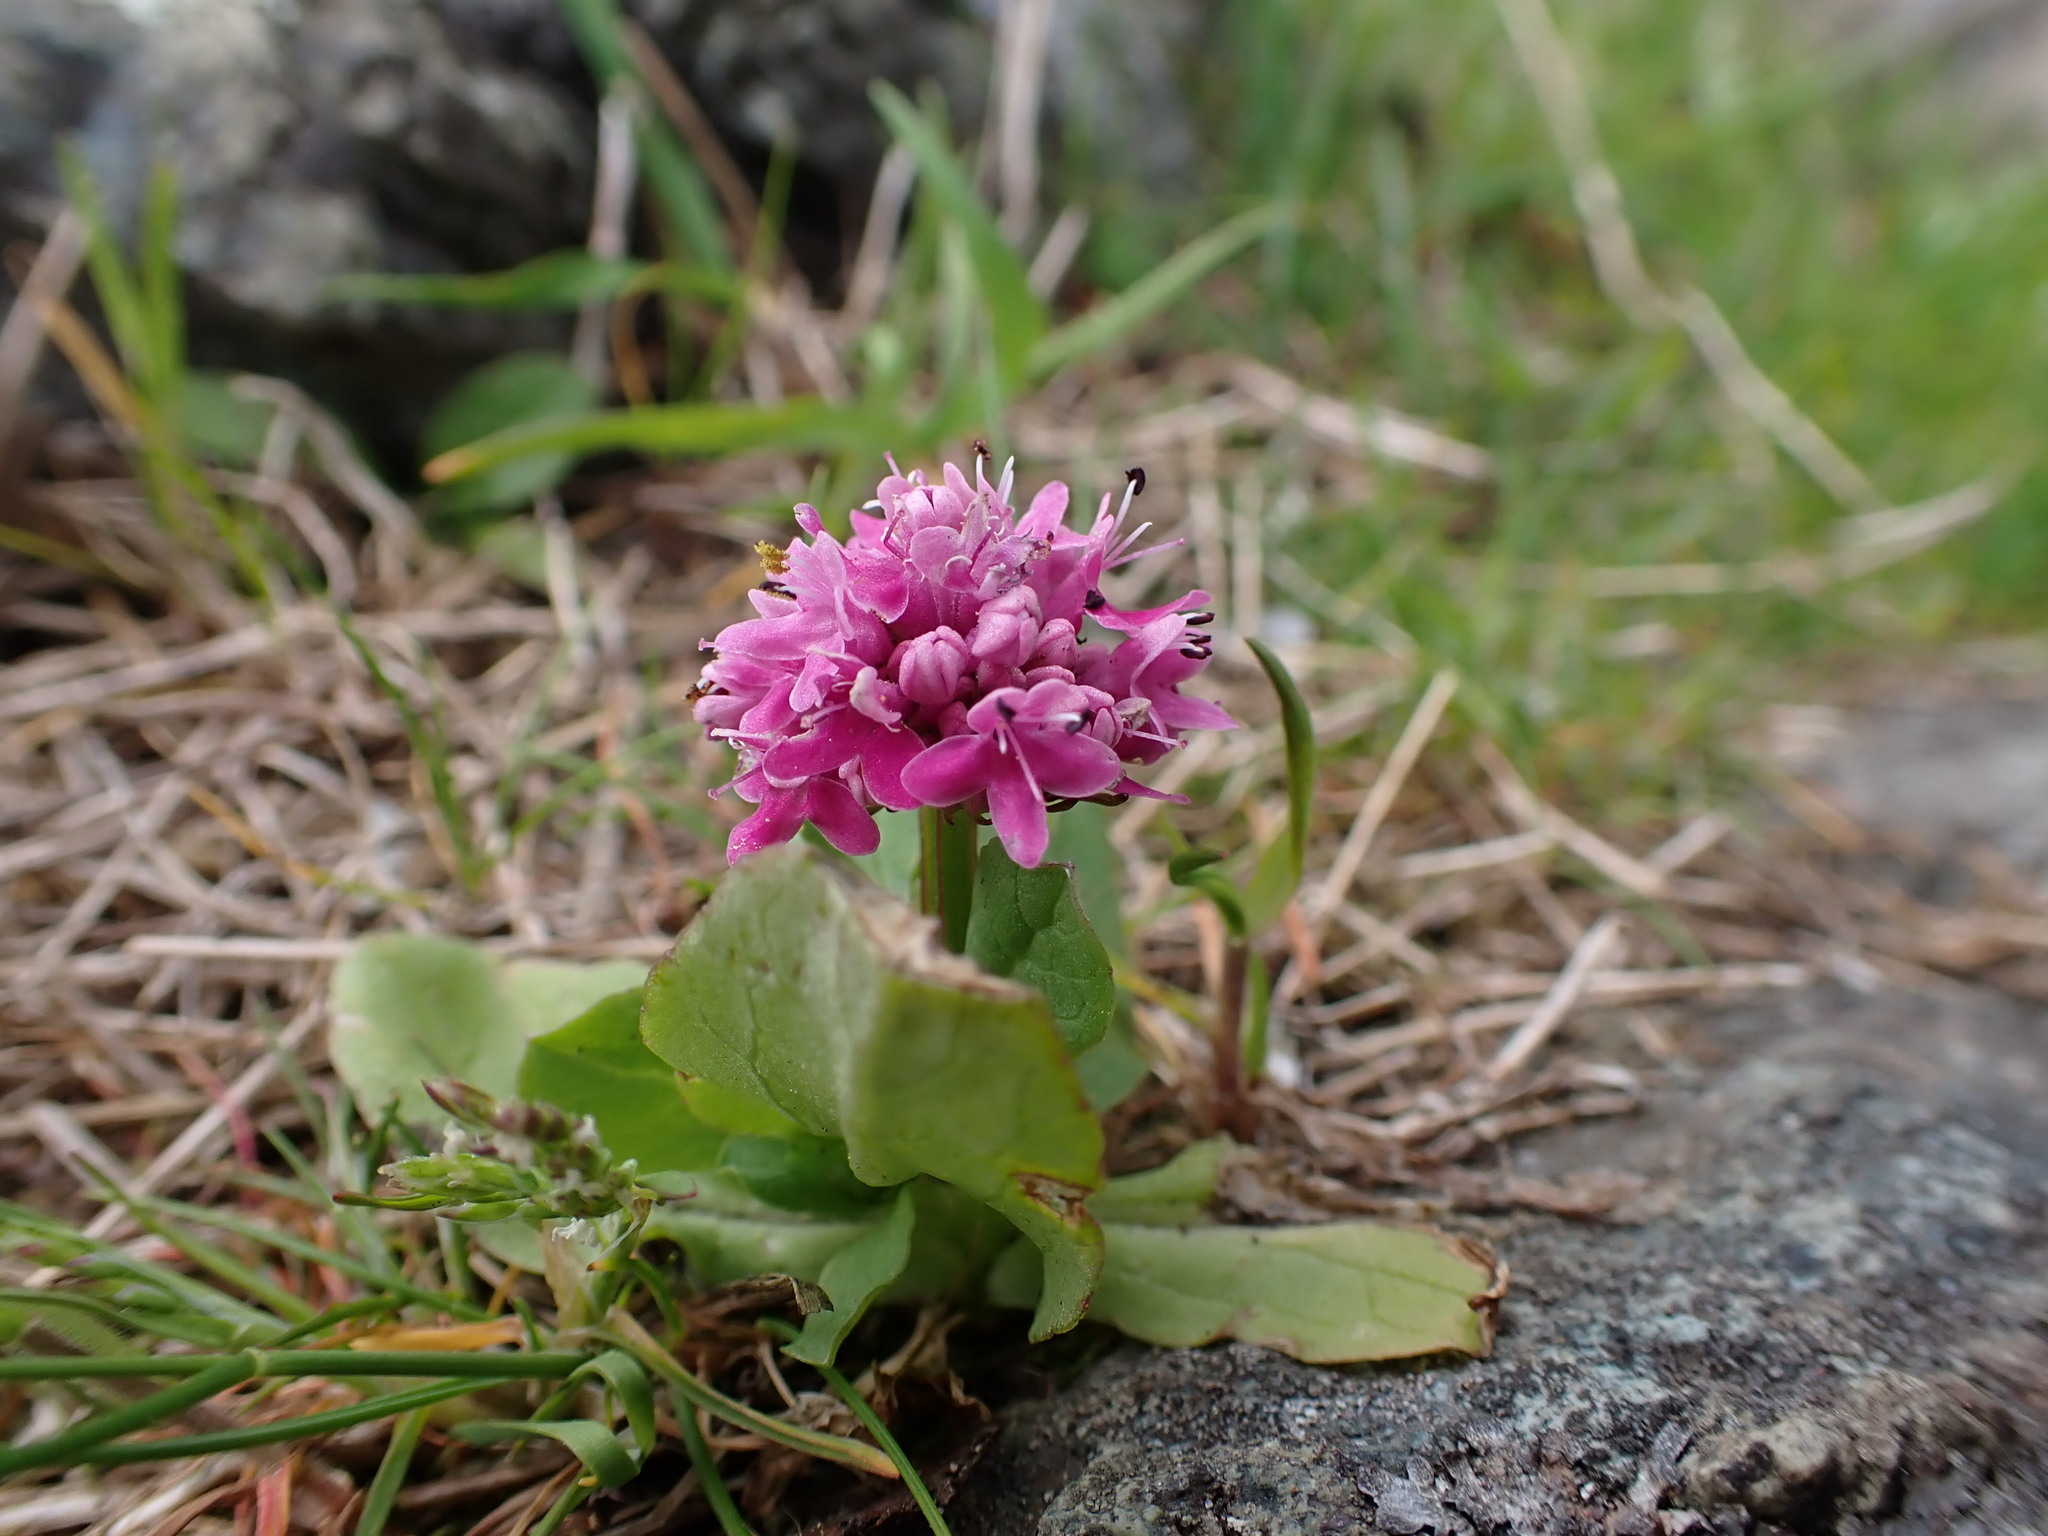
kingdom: Plantae
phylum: Tracheophyta
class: Magnoliopsida
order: Dipsacales
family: Caprifoliaceae
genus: Plectritis
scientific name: Plectritis congesta
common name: Pink plectritis
